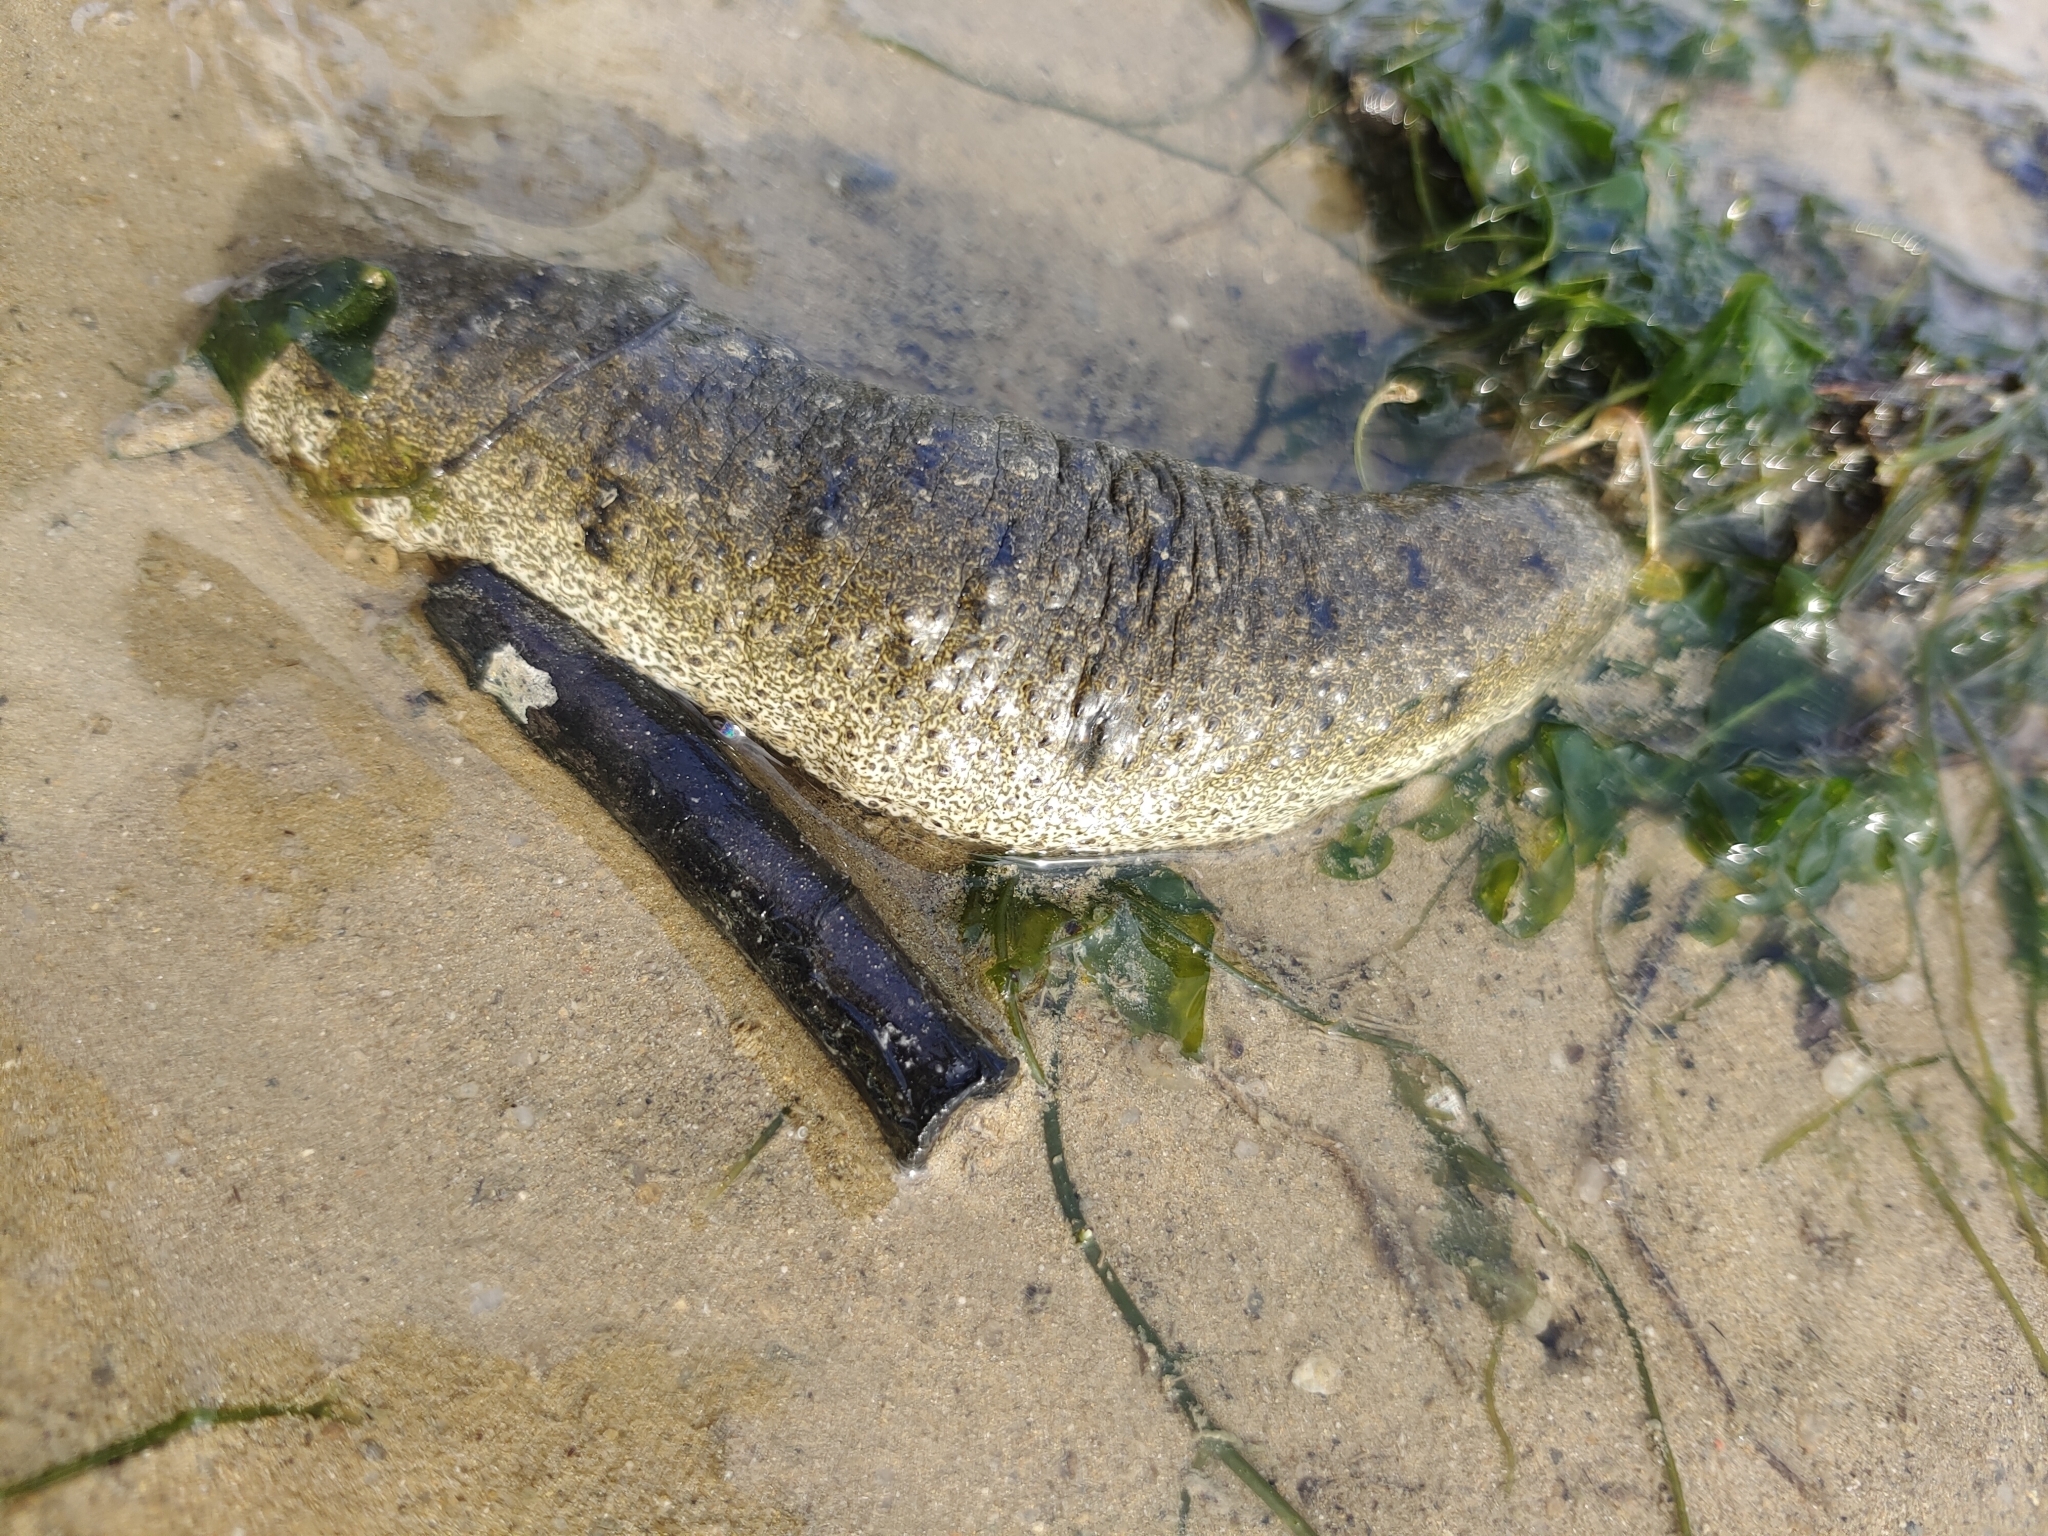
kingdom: Animalia
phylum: Echinodermata
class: Holothuroidea
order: Holothuriida
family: Holothuriidae
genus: Holothuria
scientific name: Holothuria scabra
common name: Golden sandfish
